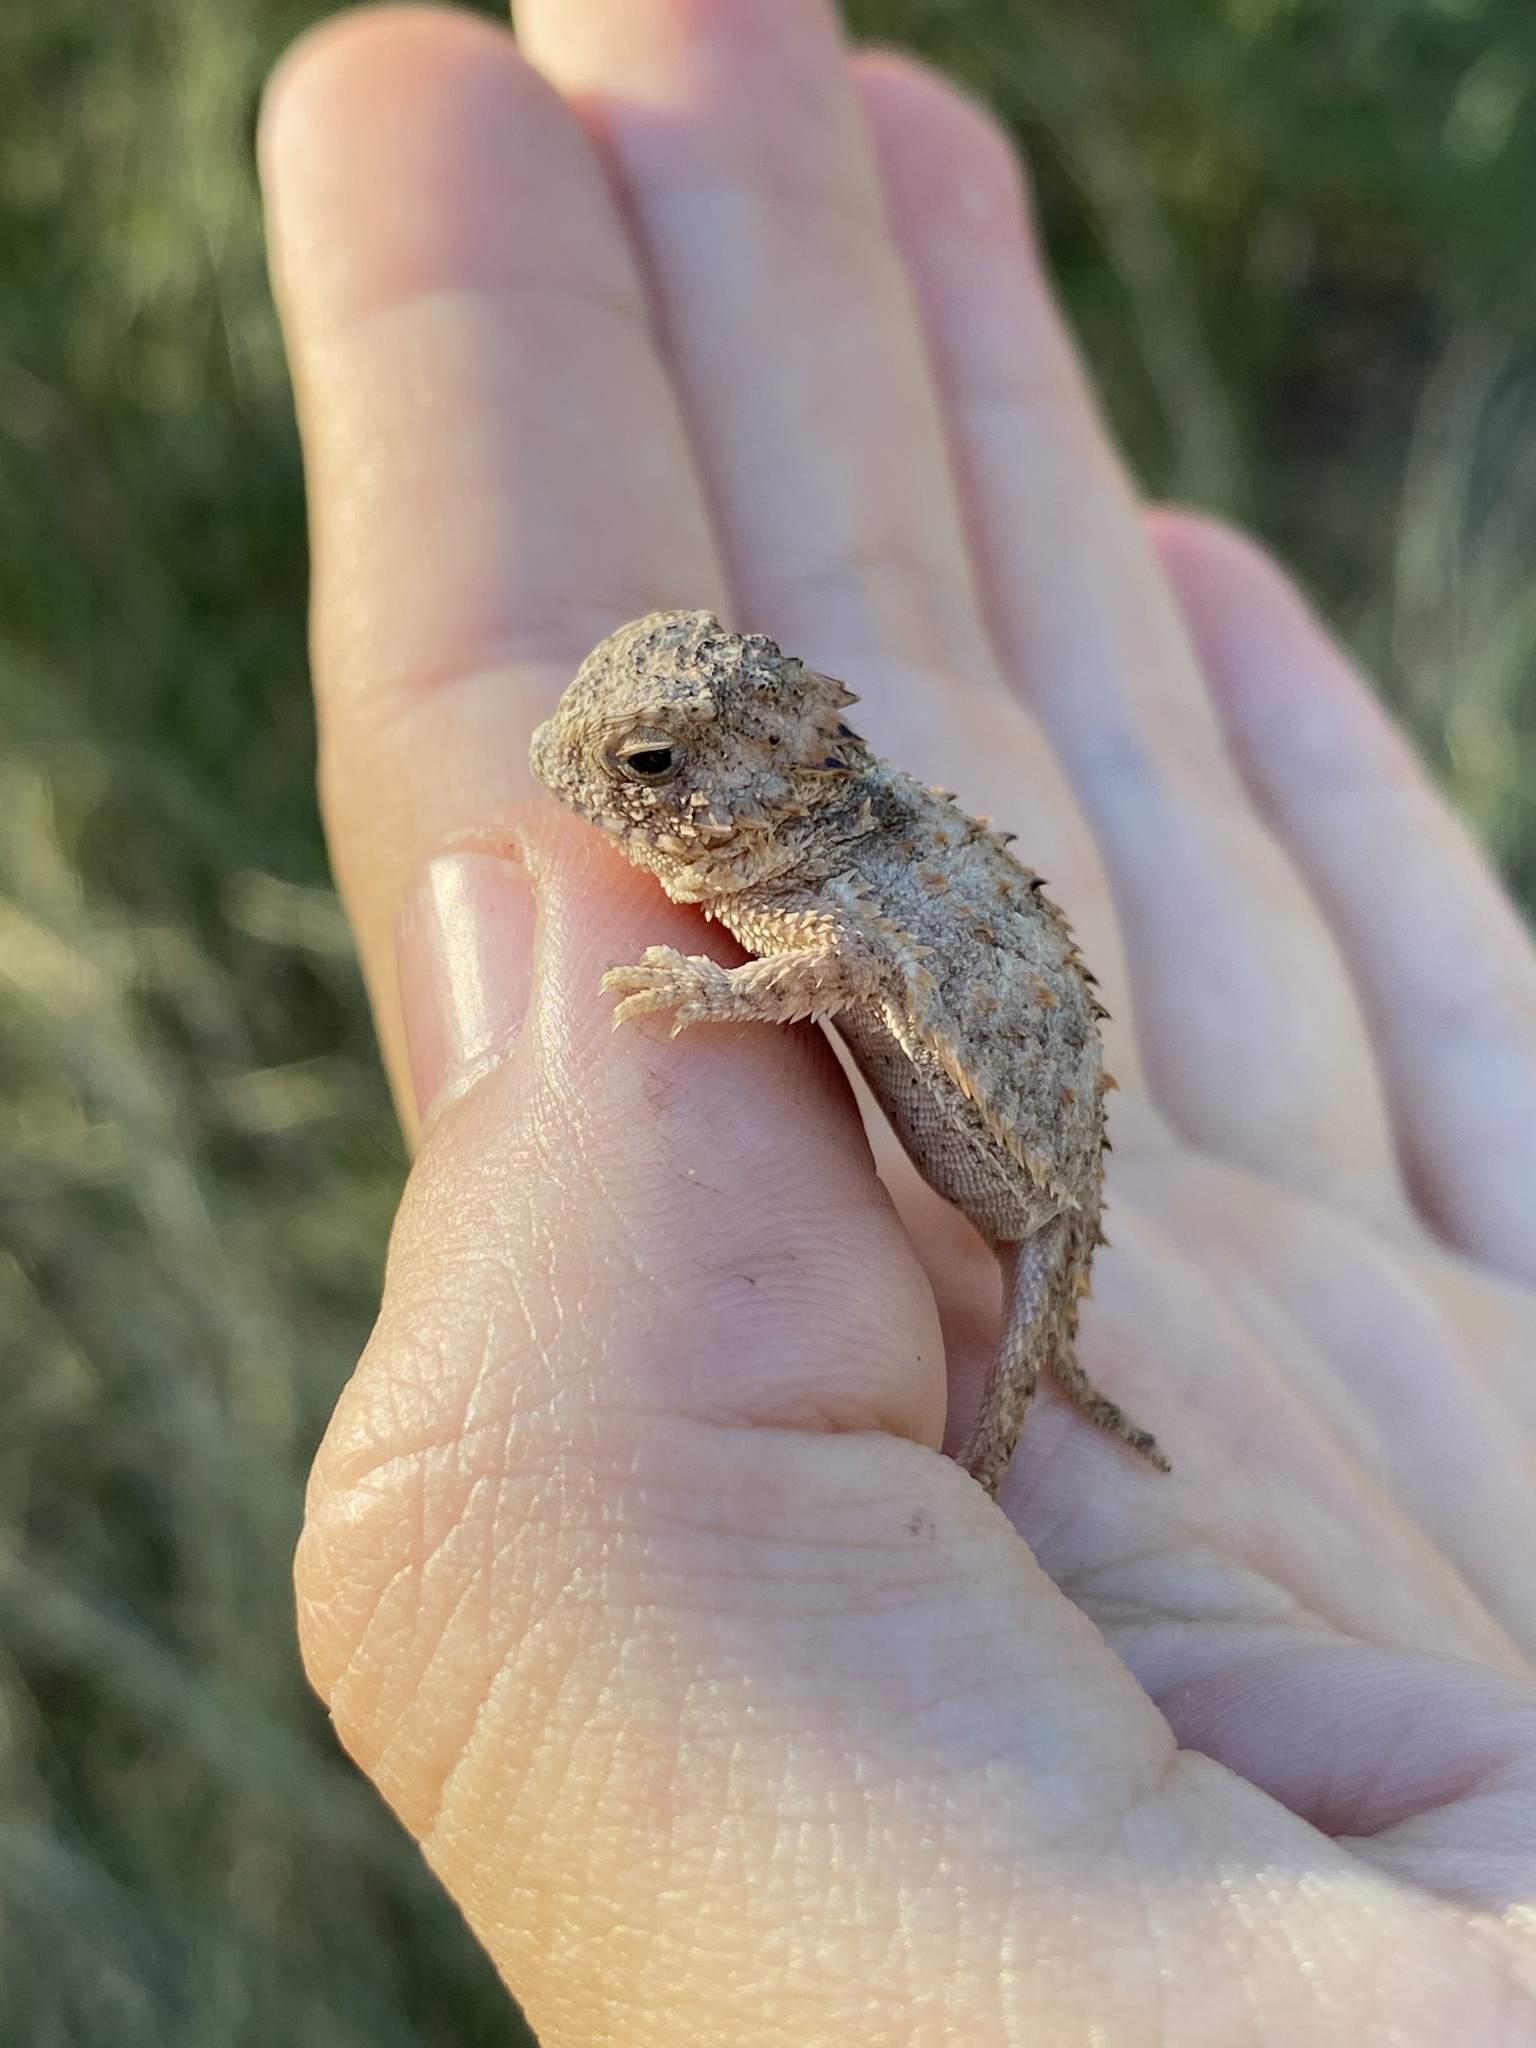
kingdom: Animalia
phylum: Chordata
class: Squamata
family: Phrynosomatidae
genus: Phrynosoma
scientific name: Phrynosoma solare
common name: Regal horned lizard
